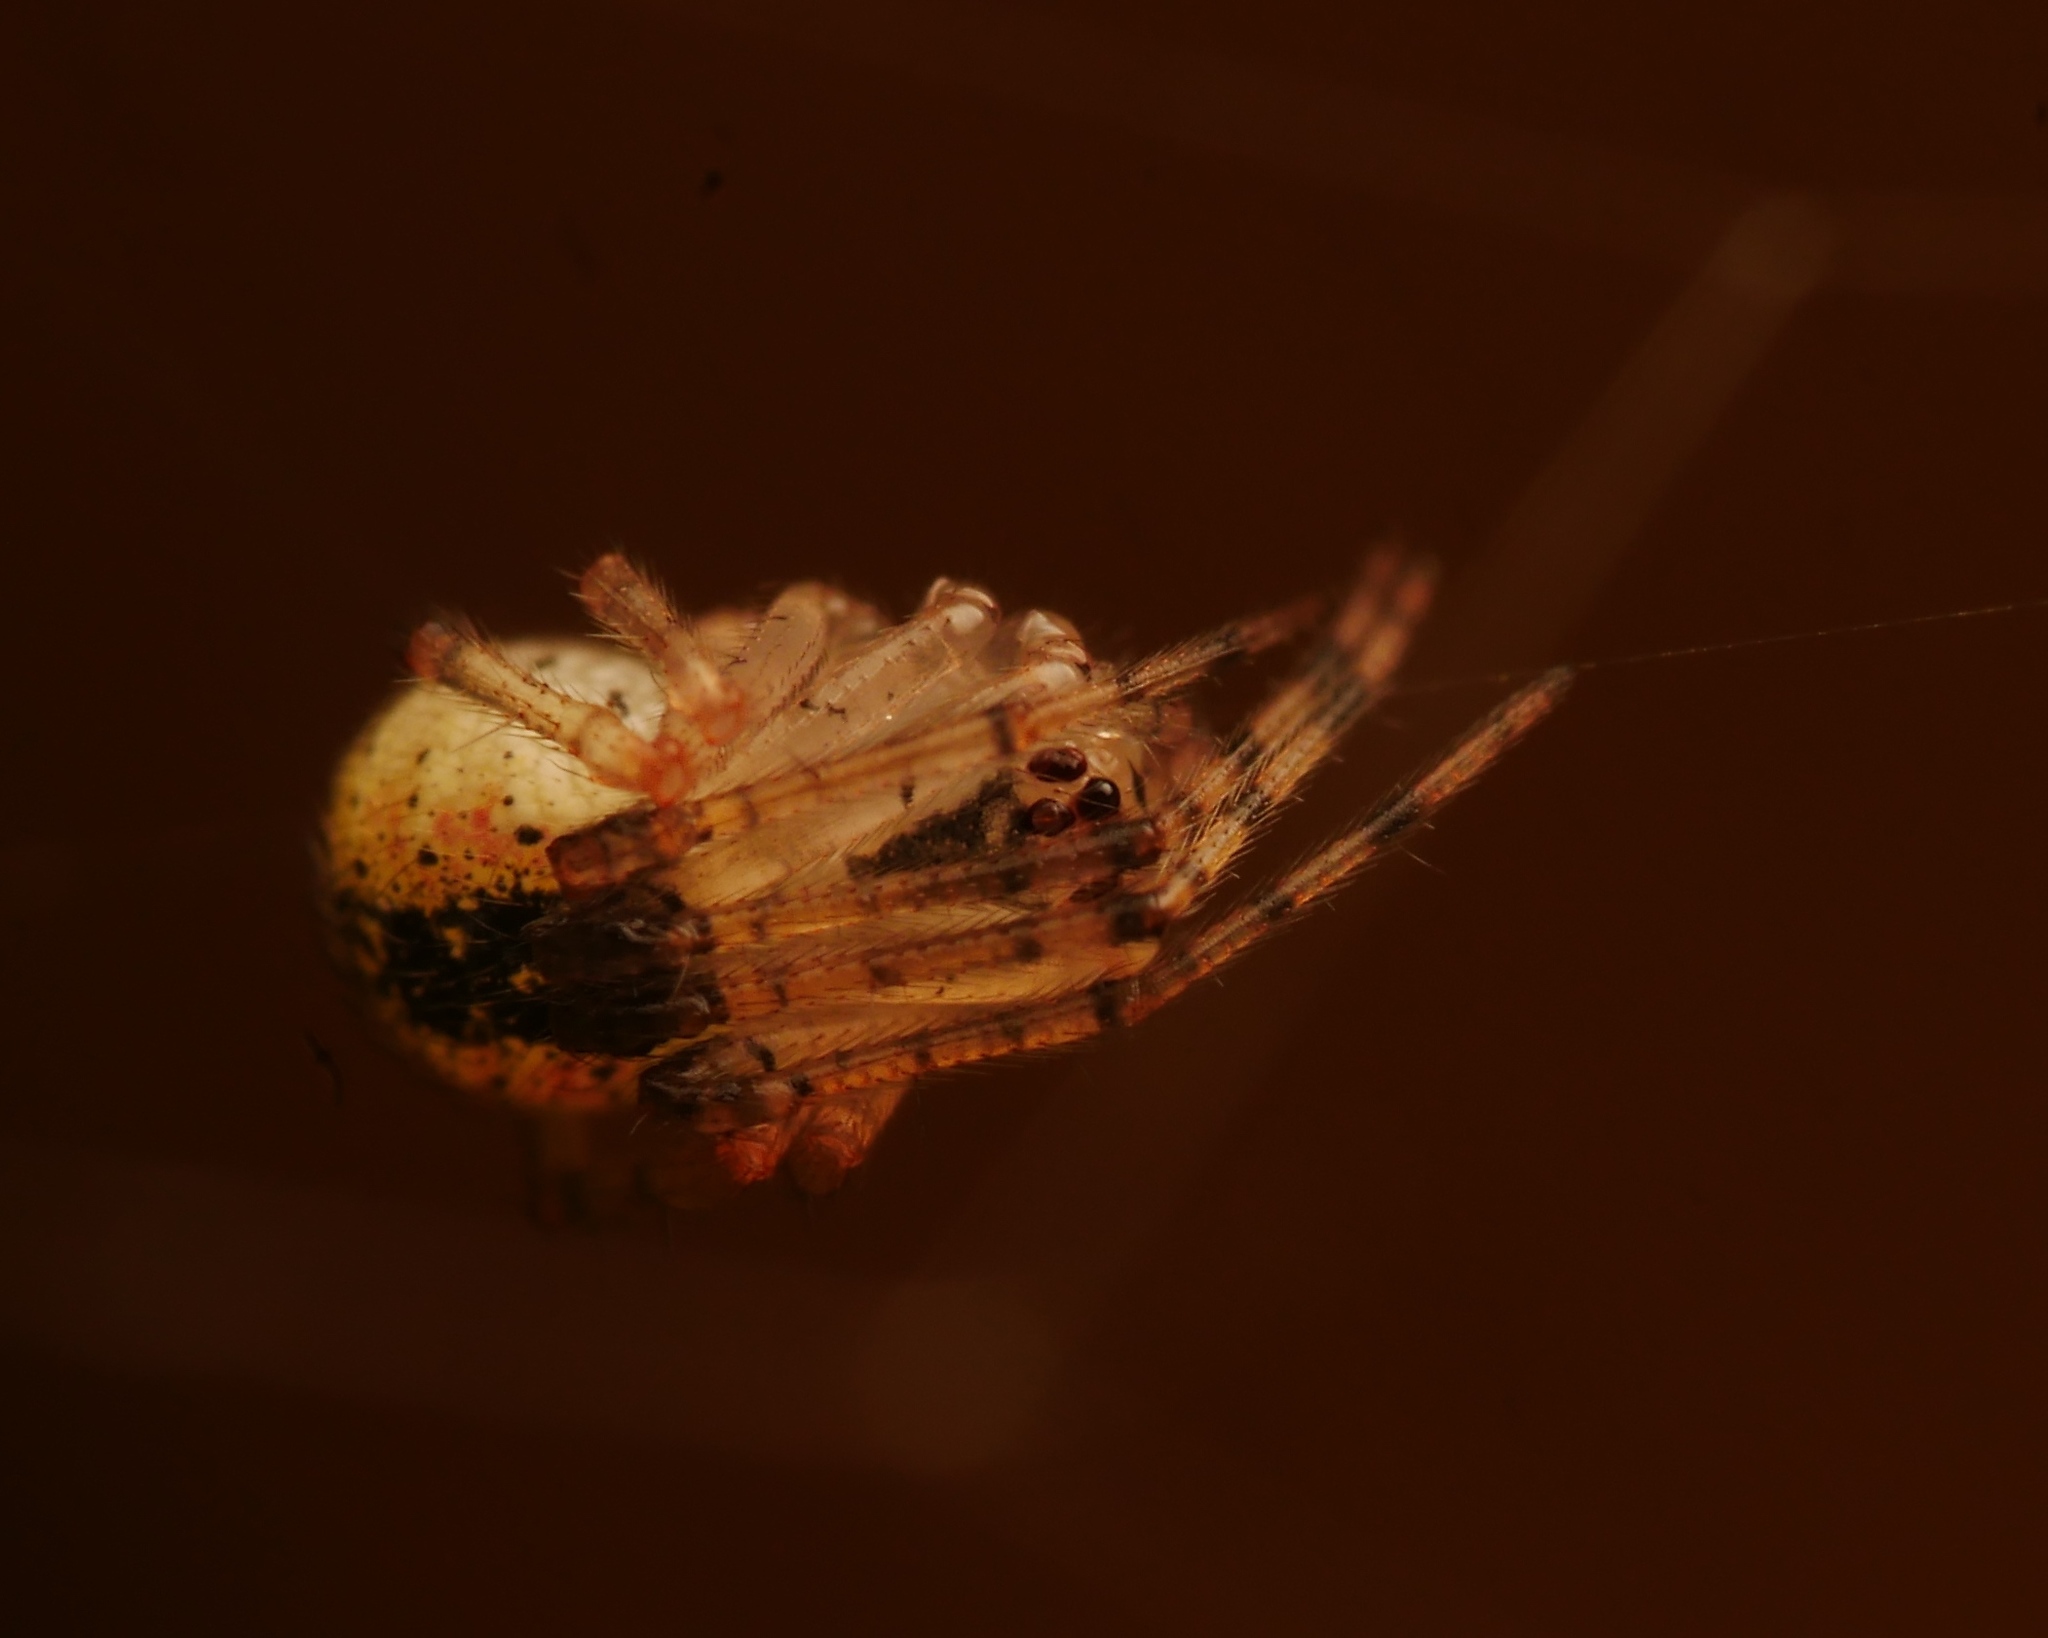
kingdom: Animalia
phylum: Arthropoda
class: Arachnida
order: Araneae
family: Theridiidae
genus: Platnickina
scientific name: Platnickina tincta
